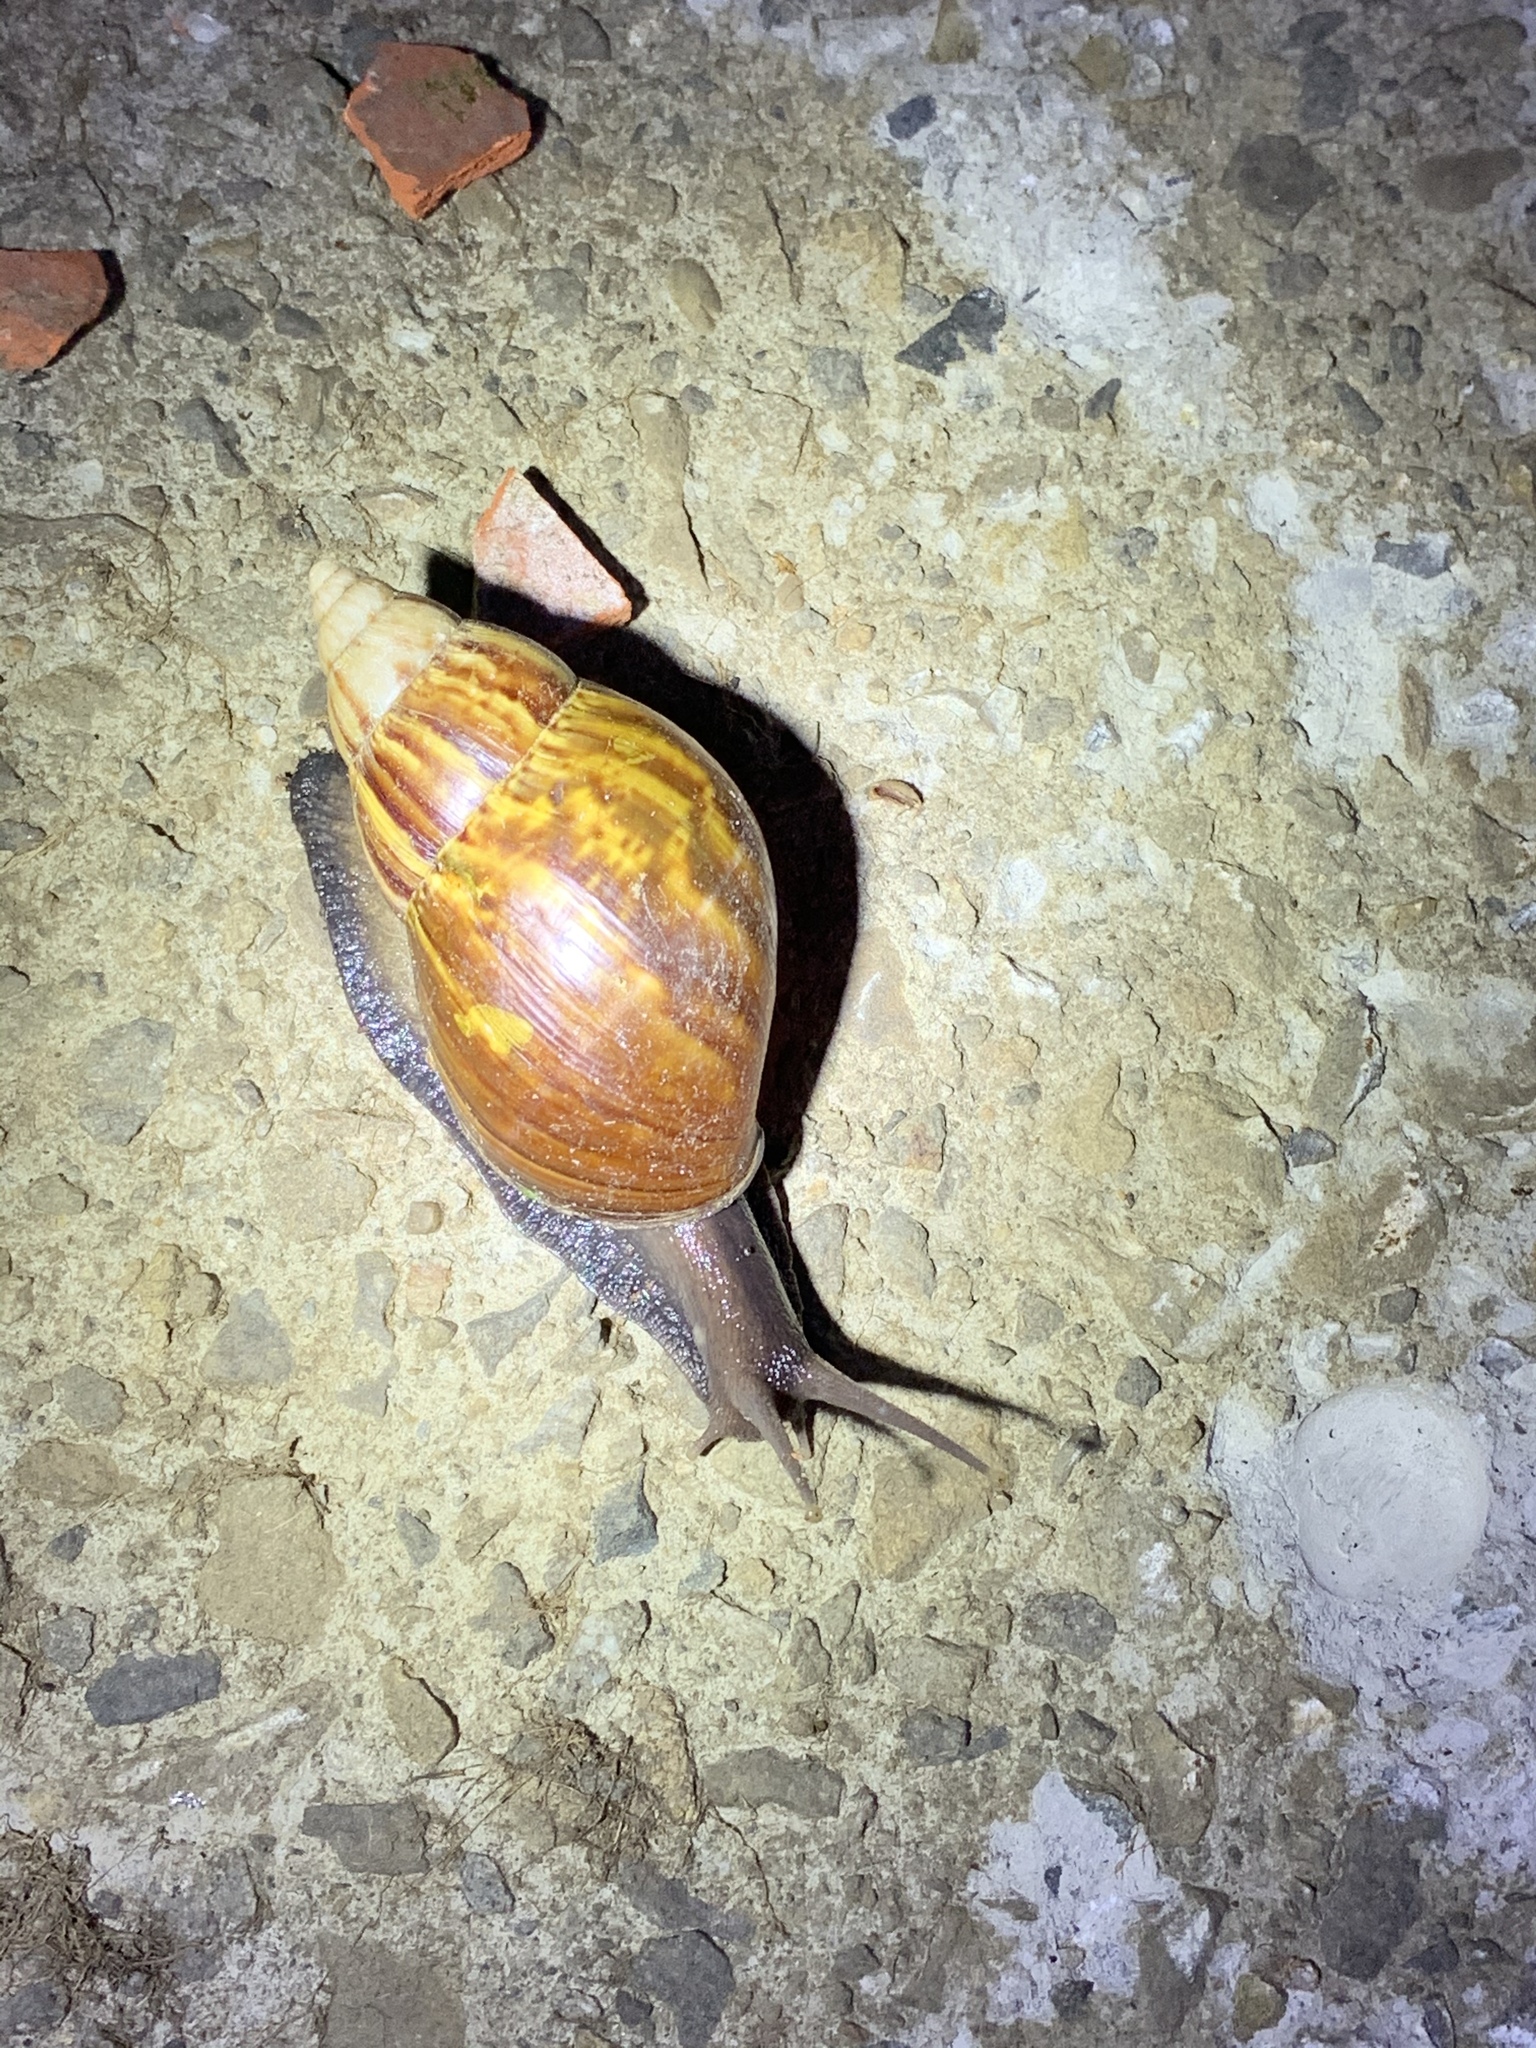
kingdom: Animalia
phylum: Mollusca
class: Gastropoda
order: Stylommatophora
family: Achatinidae
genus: Lissachatina
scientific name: Lissachatina fulica
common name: Giant african snail
